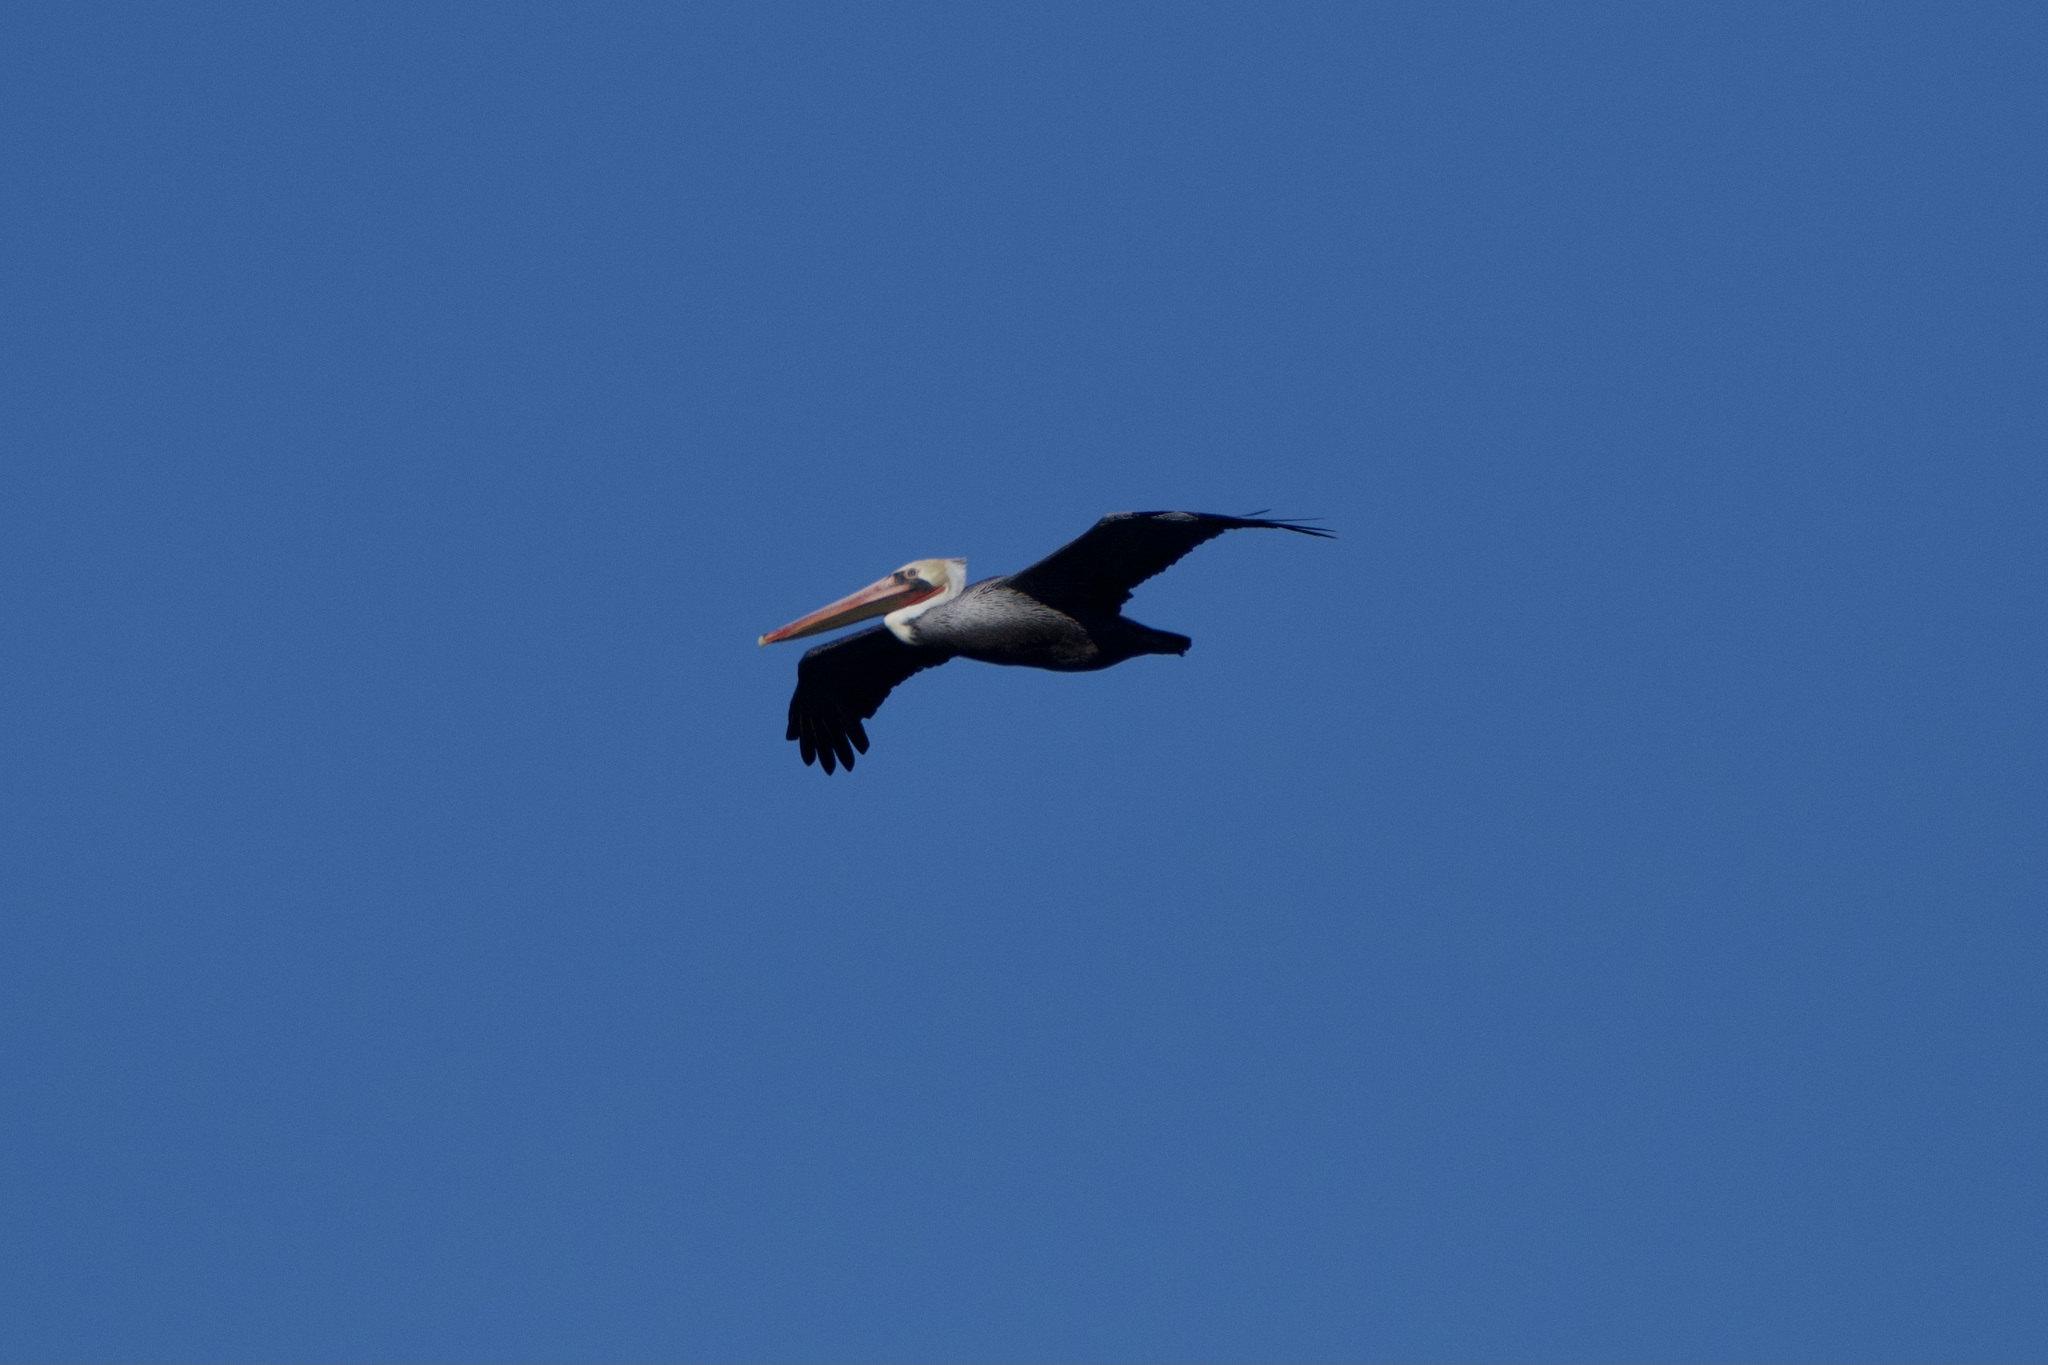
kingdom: Animalia
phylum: Chordata
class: Aves
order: Pelecaniformes
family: Pelecanidae
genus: Pelecanus
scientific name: Pelecanus occidentalis
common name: Brown pelican
